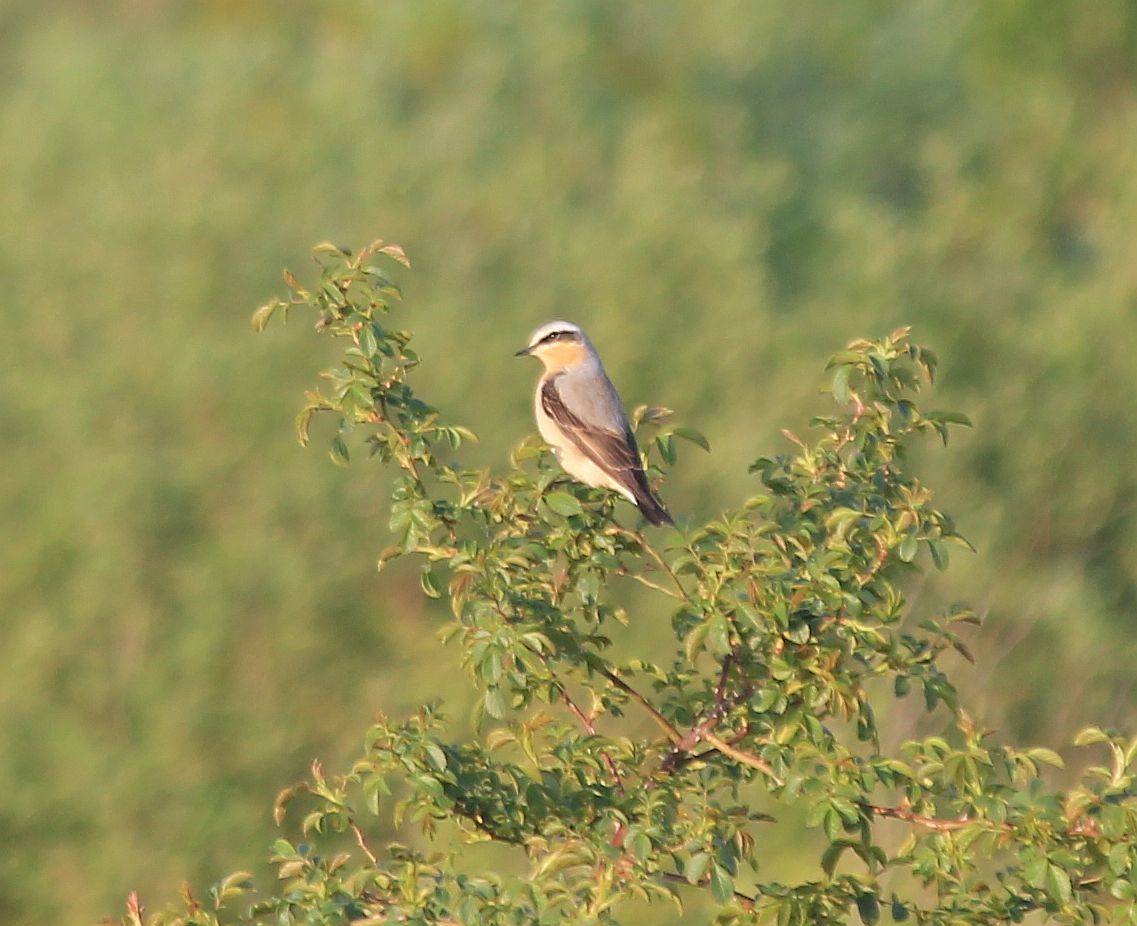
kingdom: Animalia
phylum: Chordata
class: Aves
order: Passeriformes
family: Muscicapidae
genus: Oenanthe
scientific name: Oenanthe oenanthe
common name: Northern wheatear
